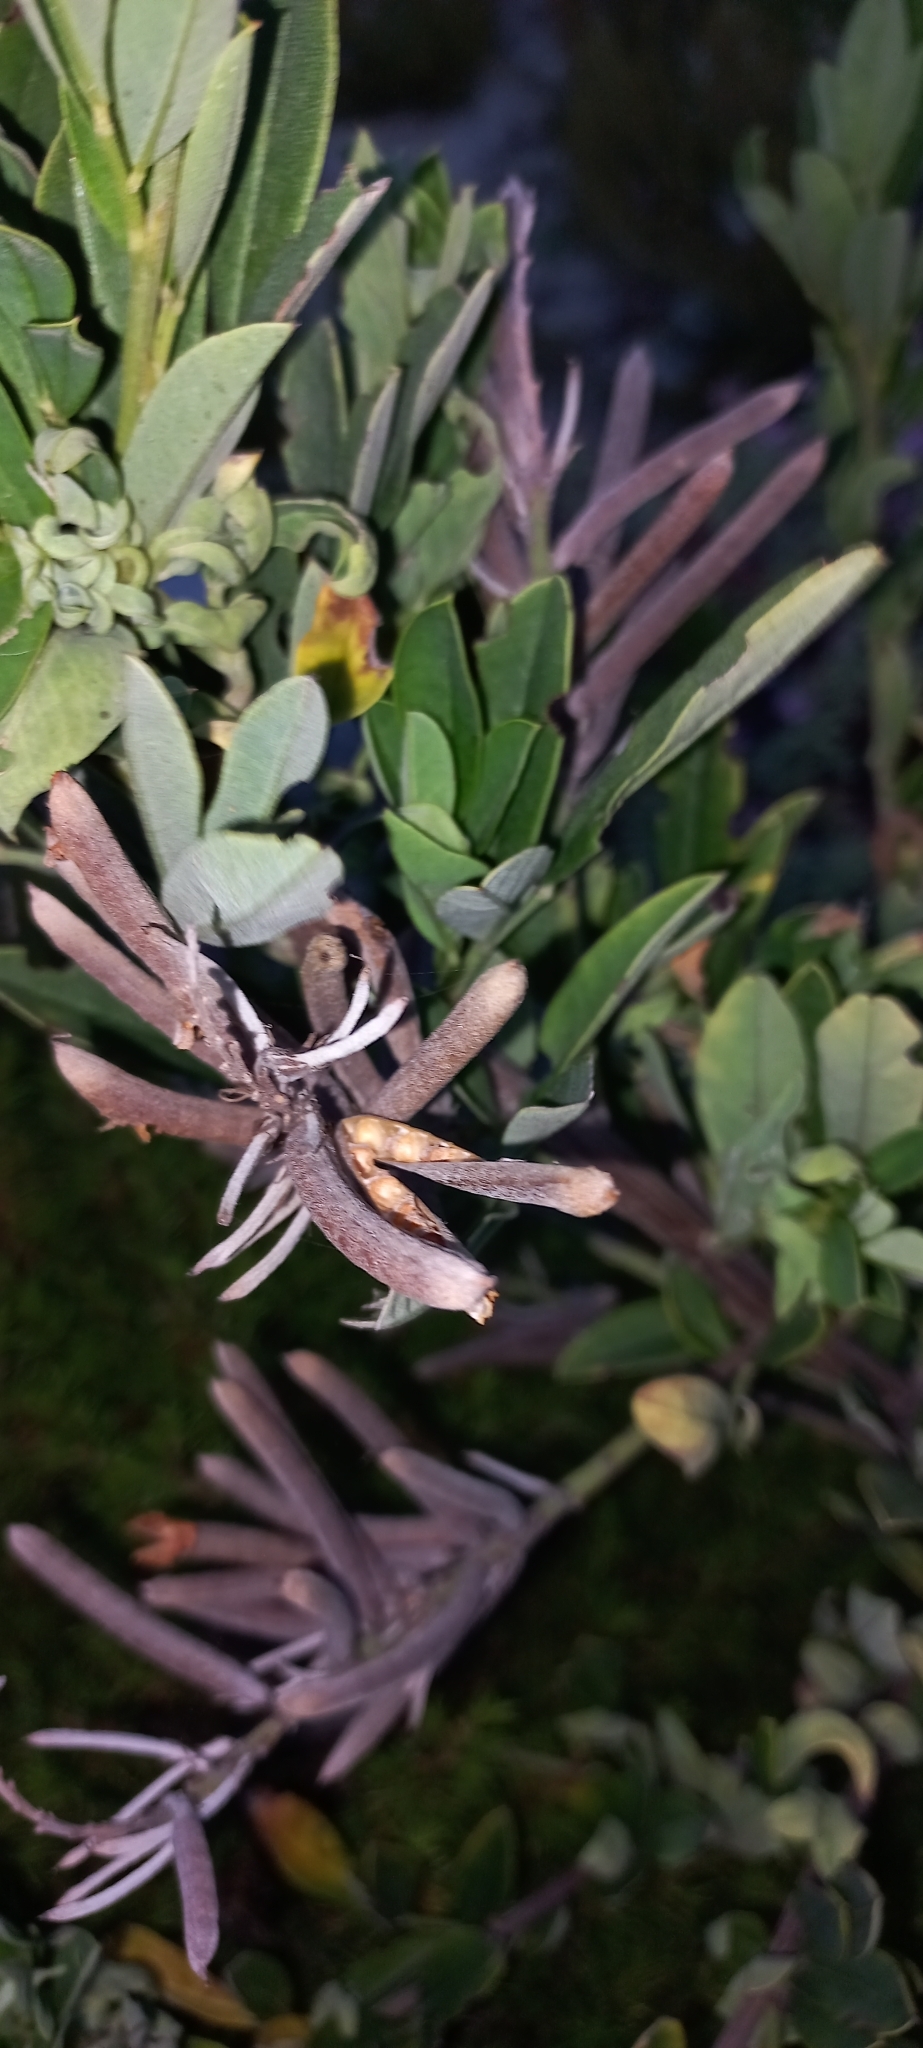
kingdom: Plantae
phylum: Tracheophyta
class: Magnoliopsida
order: Fabales
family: Fabaceae
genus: Indigofera
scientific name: Indigofera cytisoides
